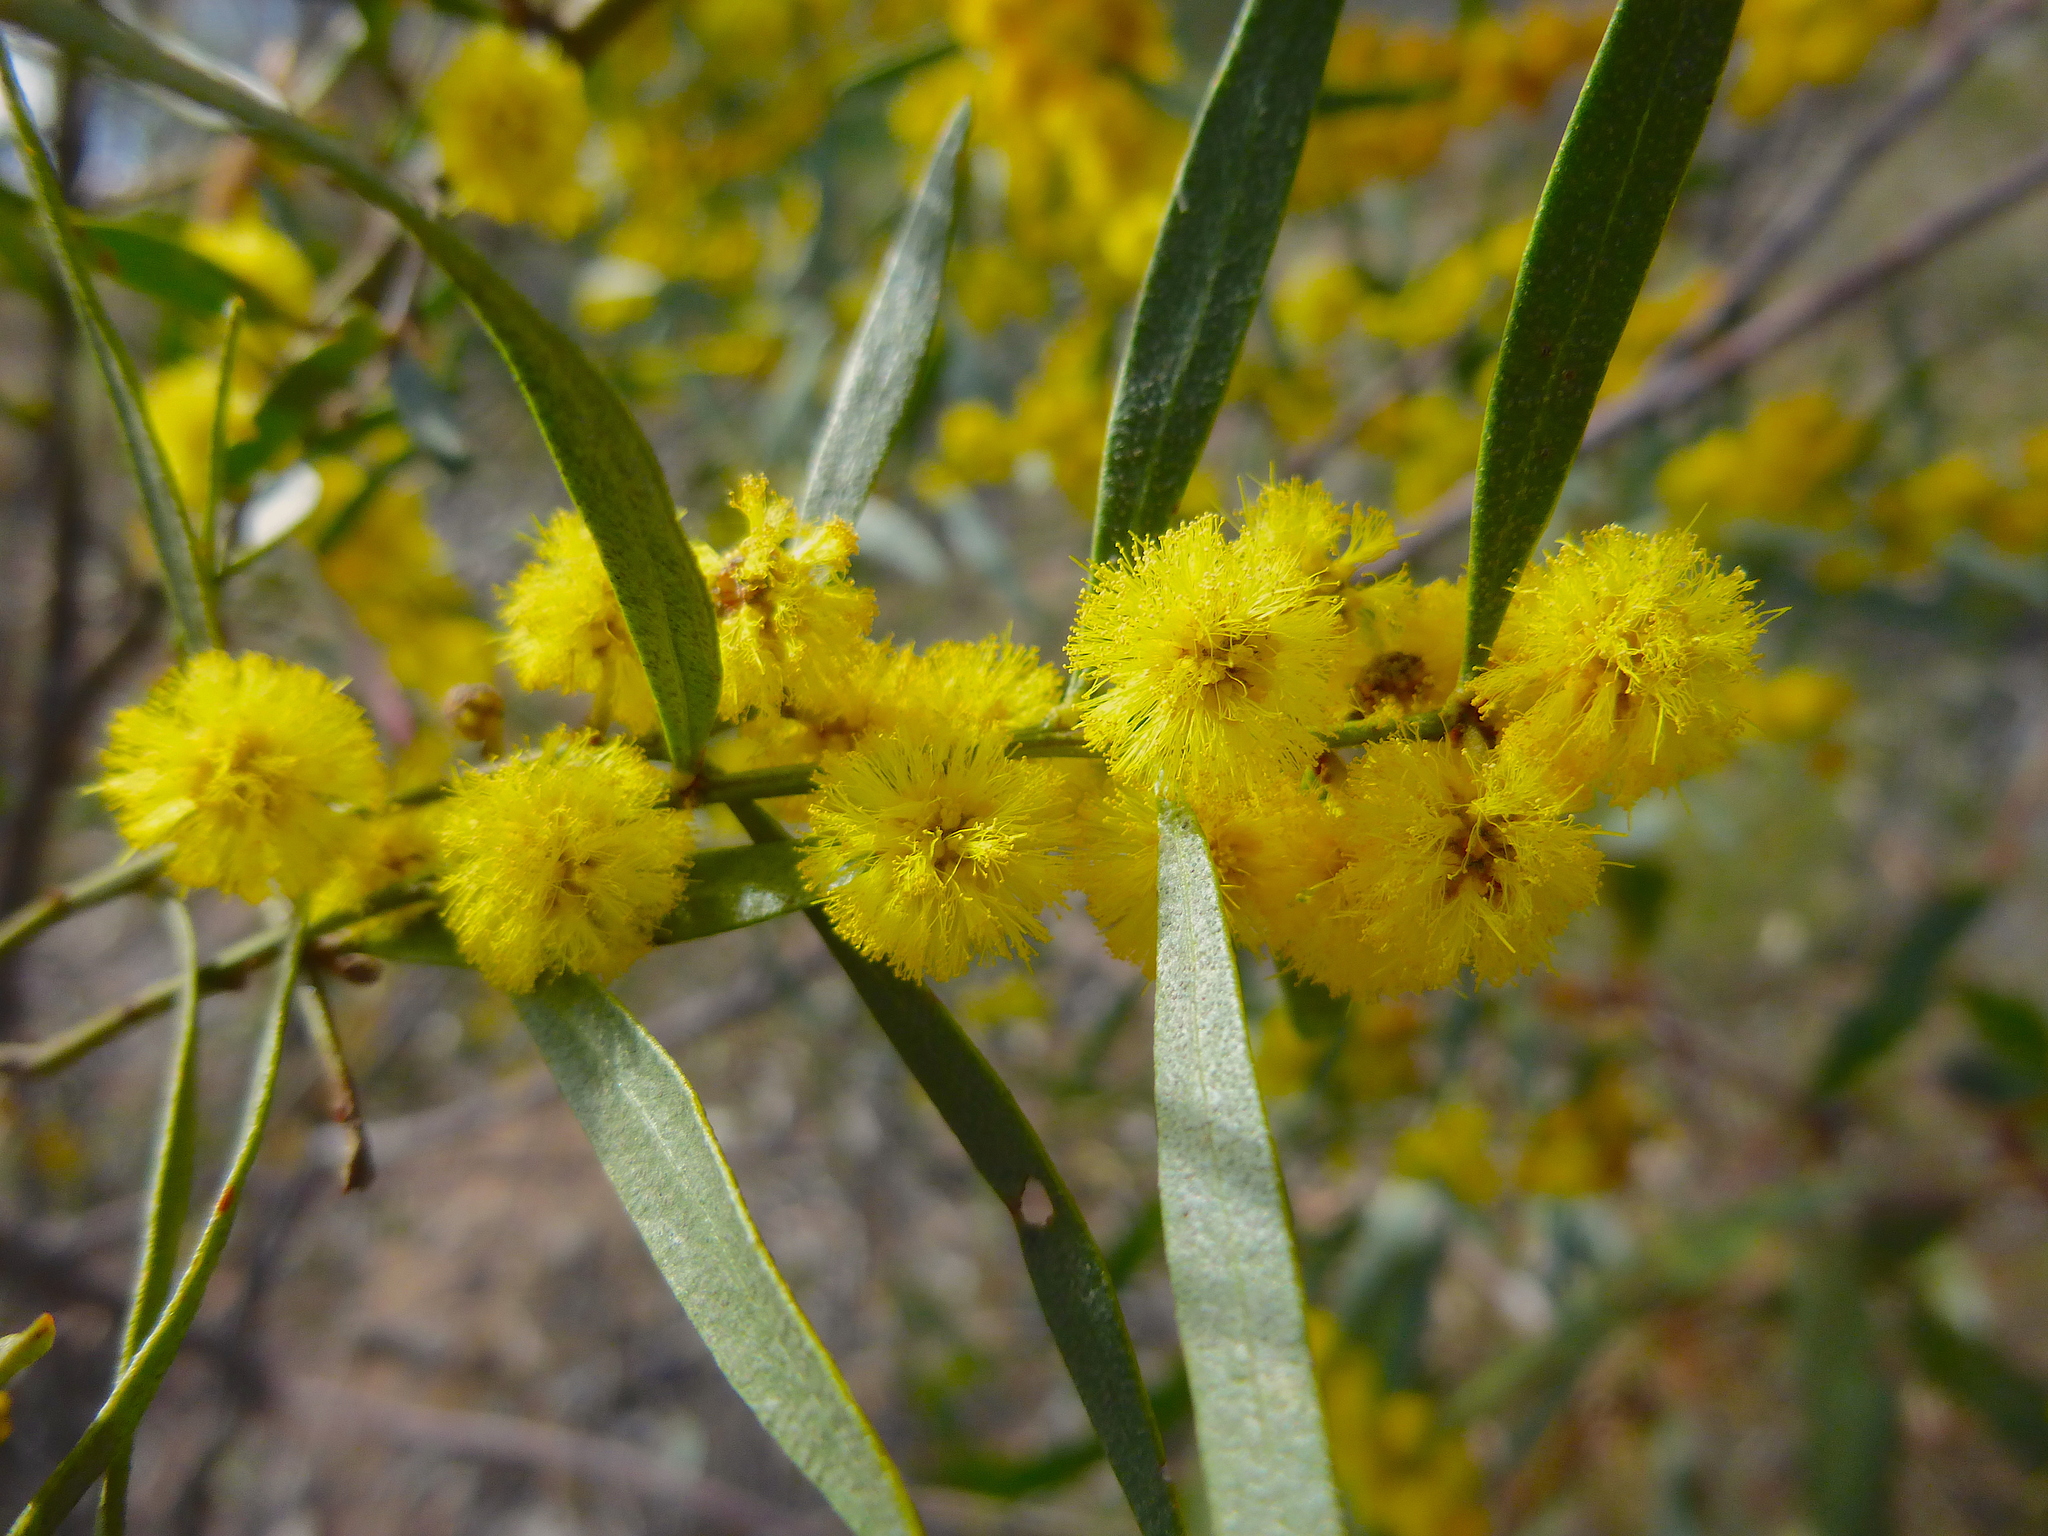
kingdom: Plantae
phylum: Tracheophyta
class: Magnoliopsida
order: Fabales
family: Fabaceae
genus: Acacia
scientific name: Acacia ausfeldii
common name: Ausfeld's wattle
